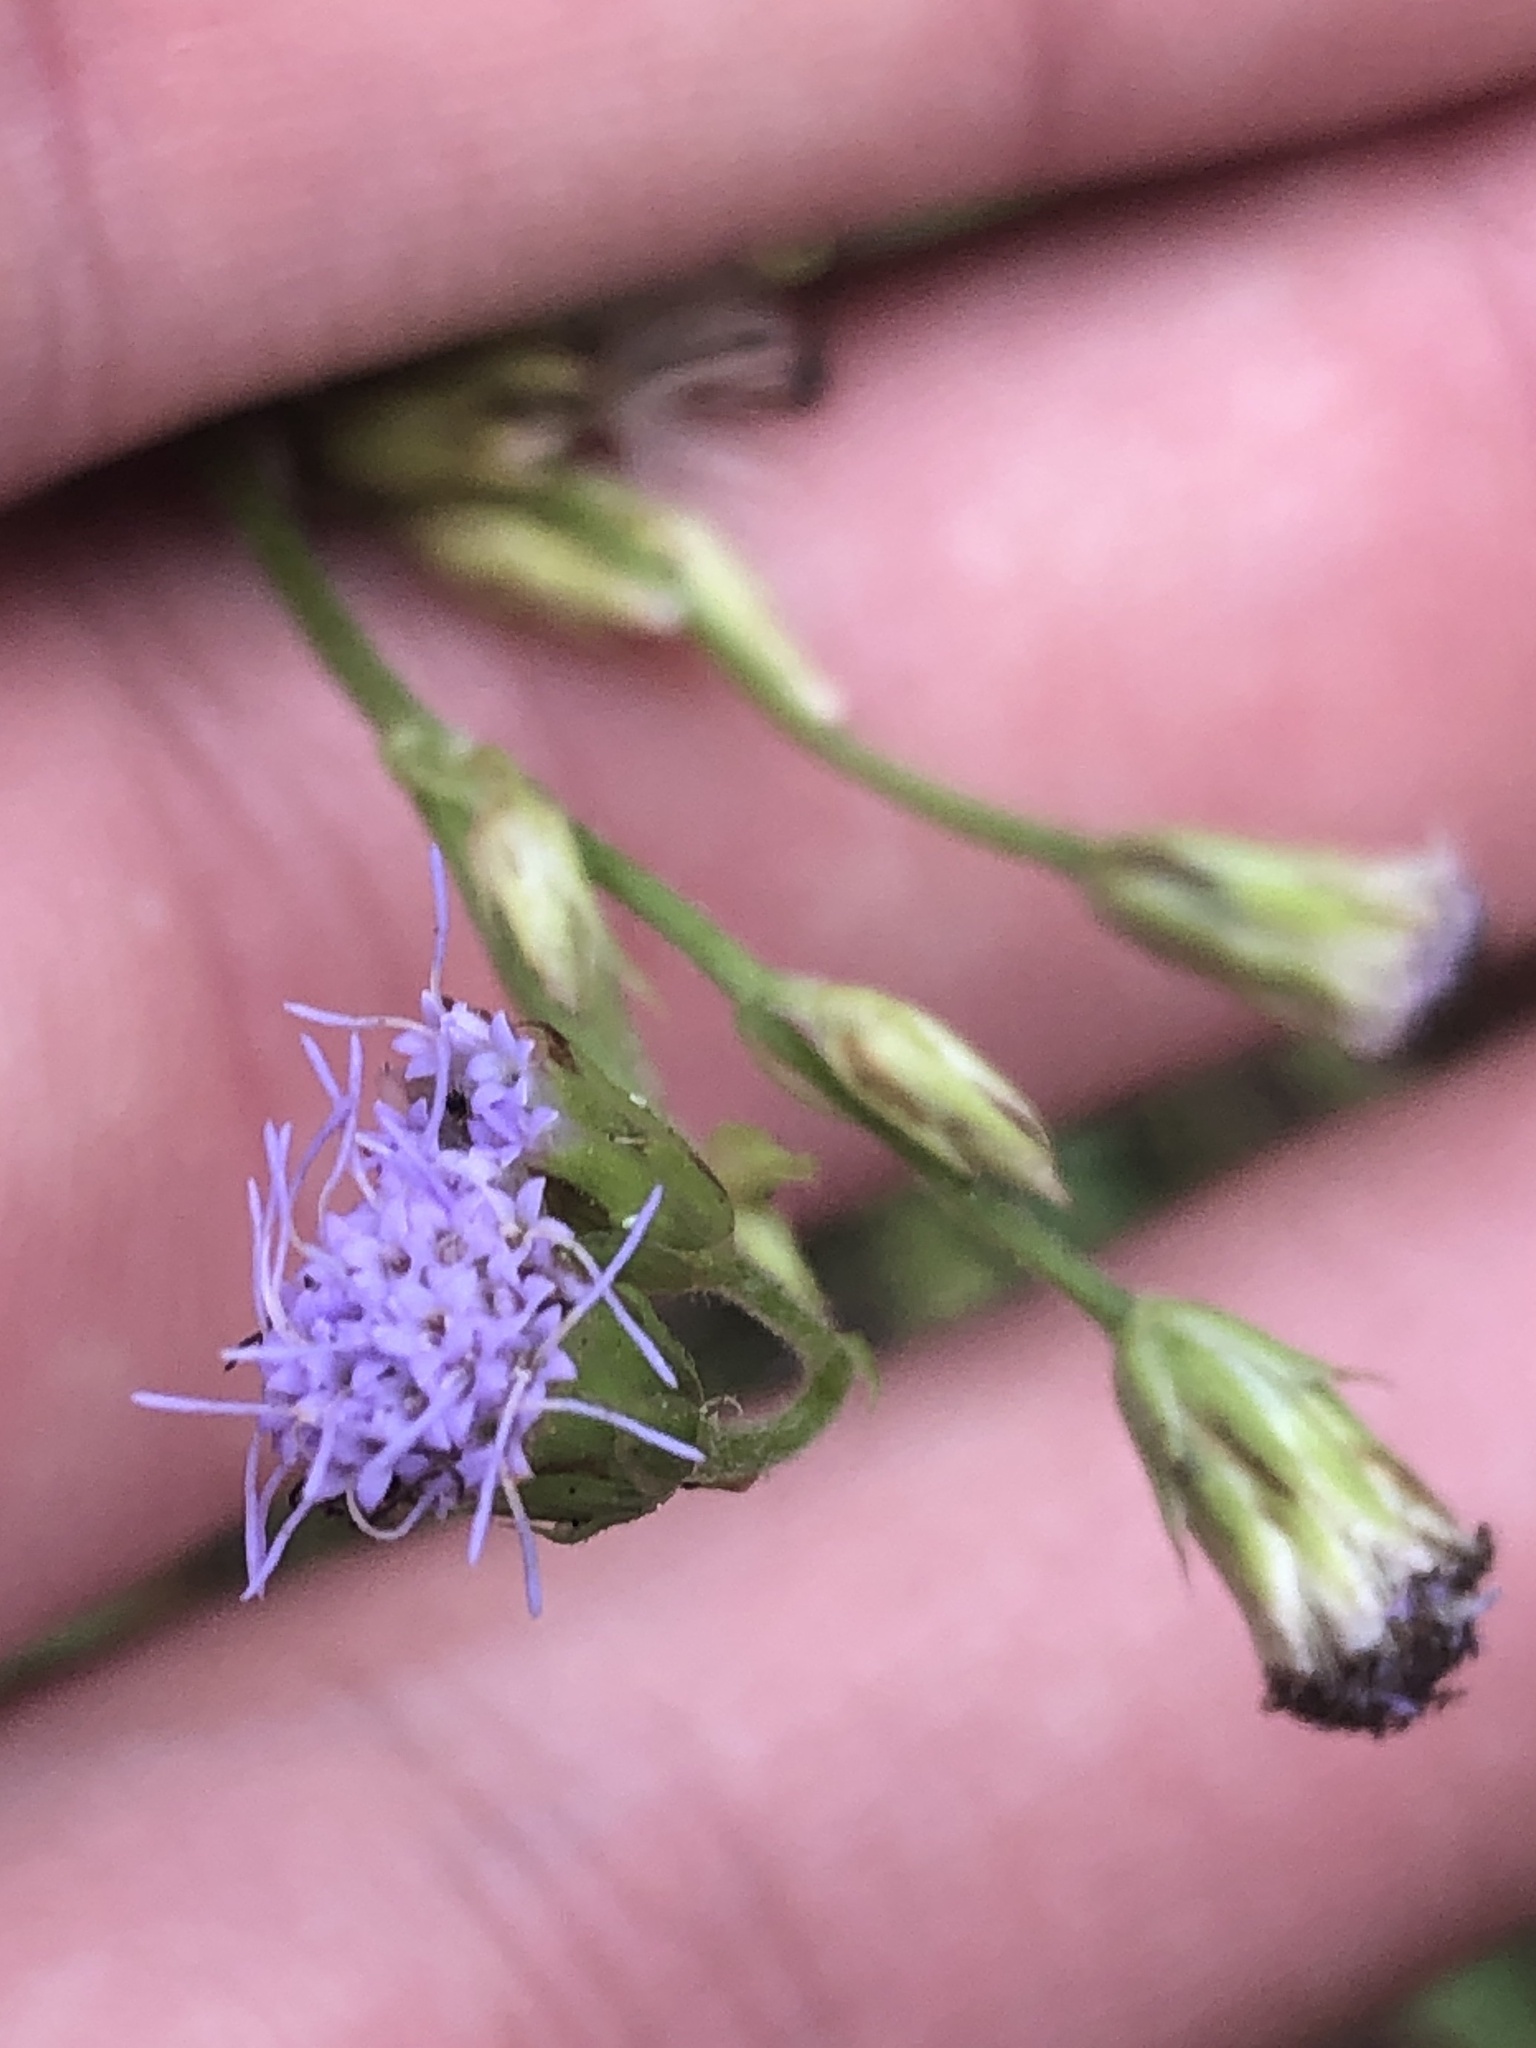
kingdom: Plantae
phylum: Tracheophyta
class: Magnoliopsida
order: Asterales
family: Asteraceae
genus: Praxelis
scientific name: Praxelis clematidea
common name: Praxelis
